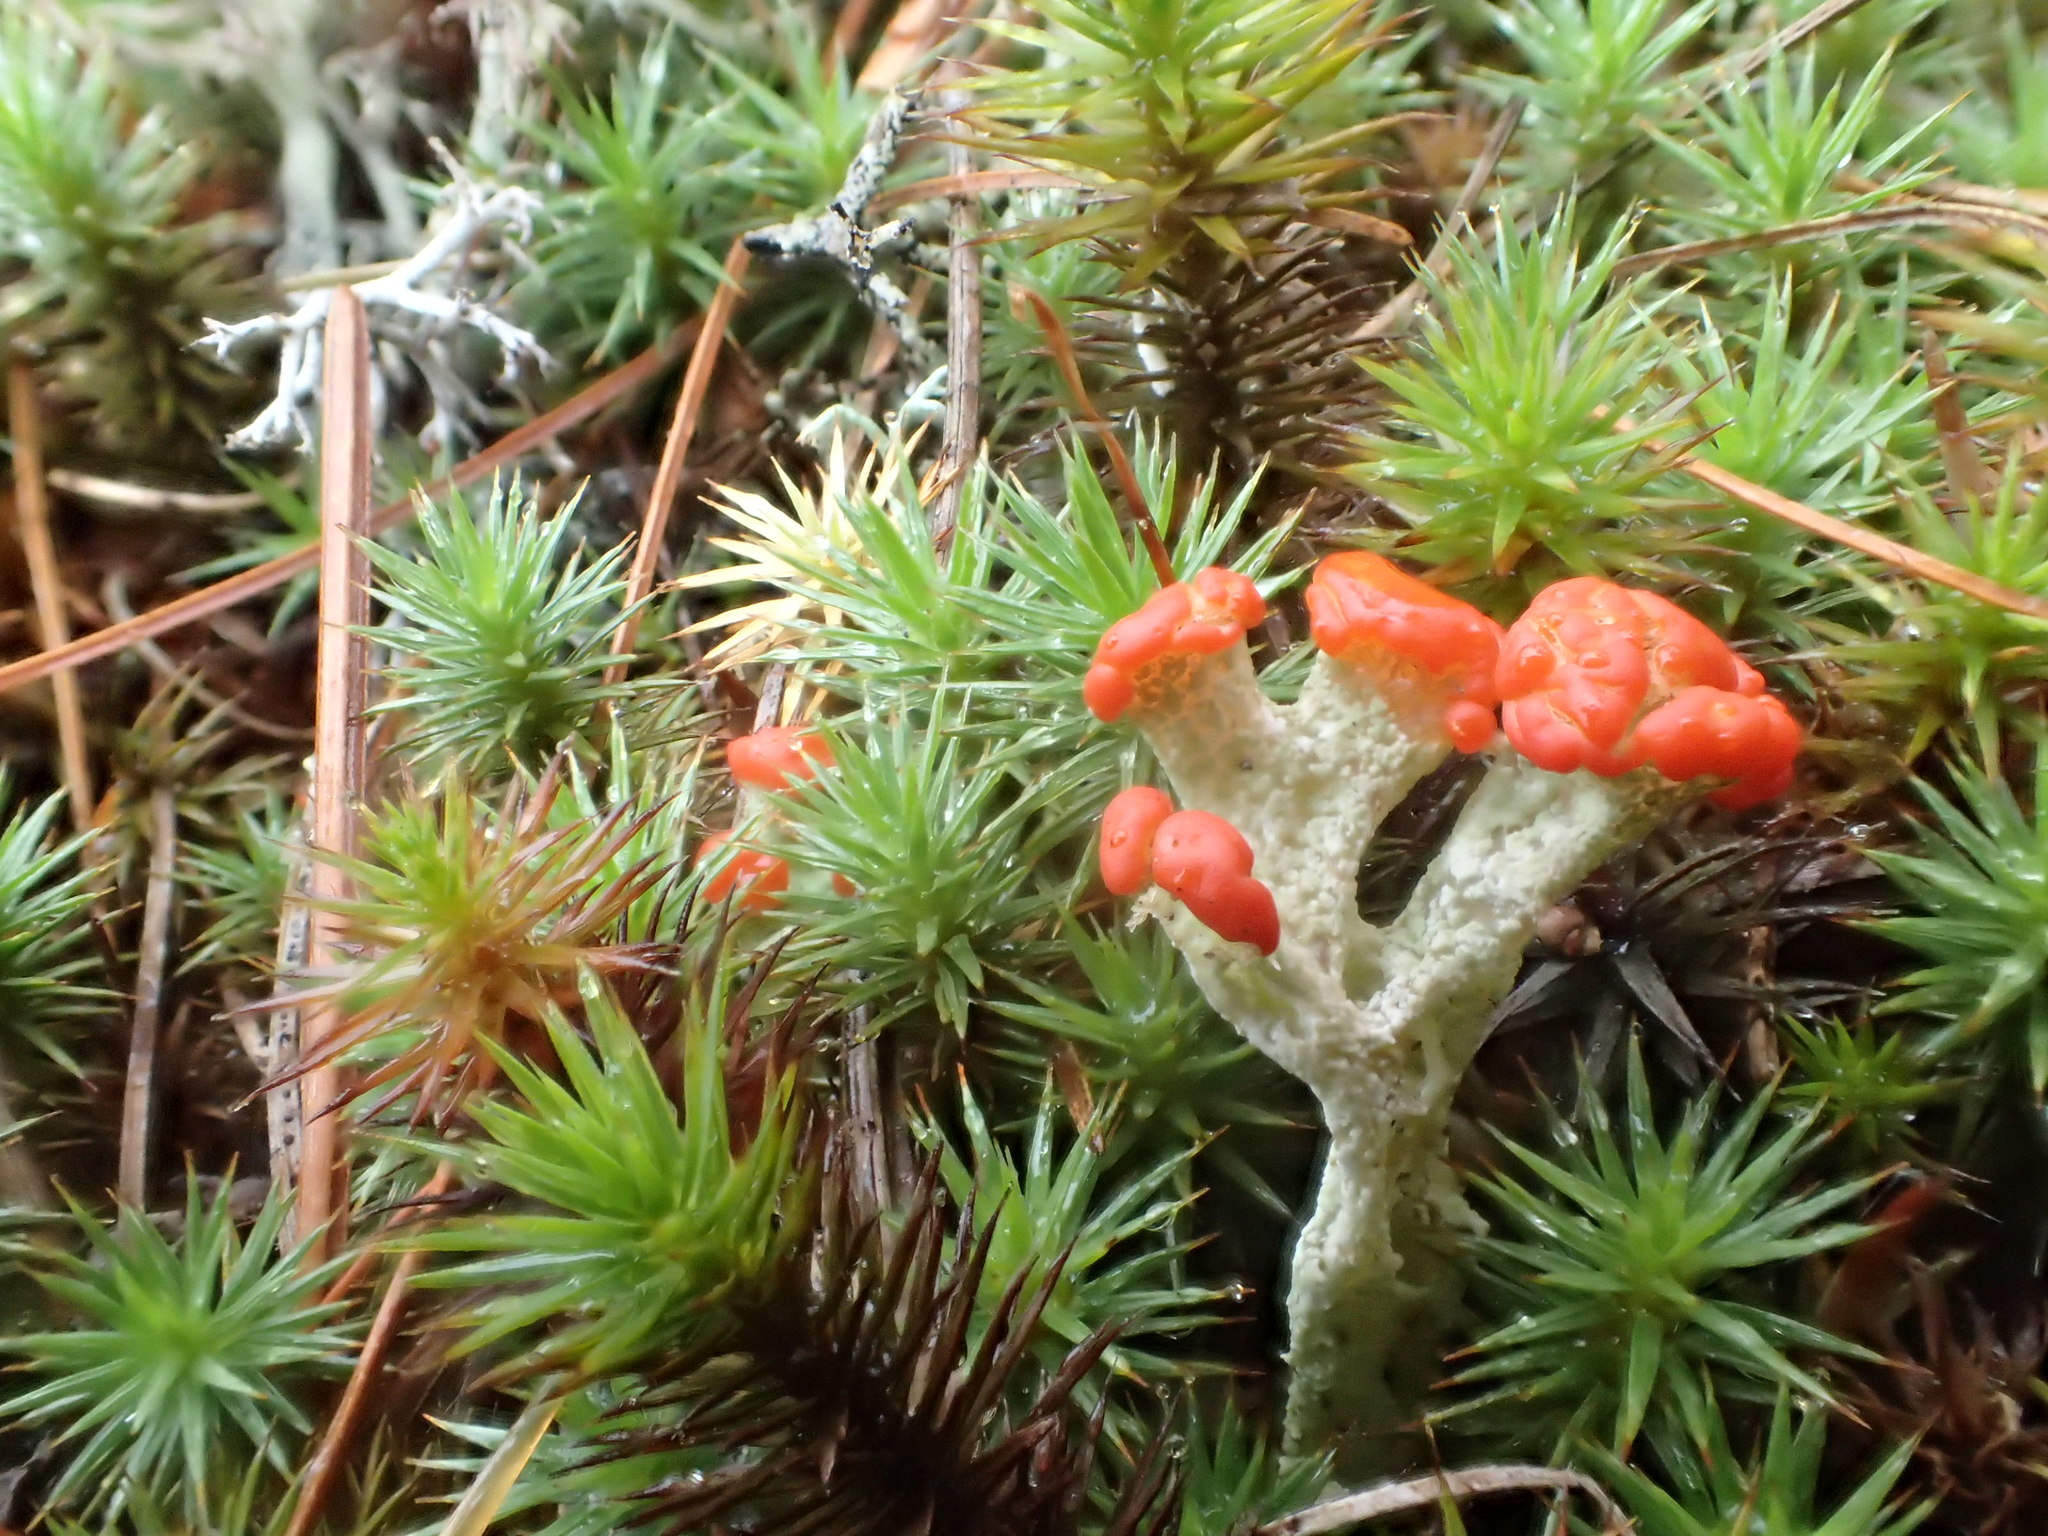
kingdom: Fungi
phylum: Ascomycota
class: Lecanoromycetes
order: Lecanorales
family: Cladoniaceae
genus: Cladonia
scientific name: Cladonia cristatella
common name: British soldier lichen
